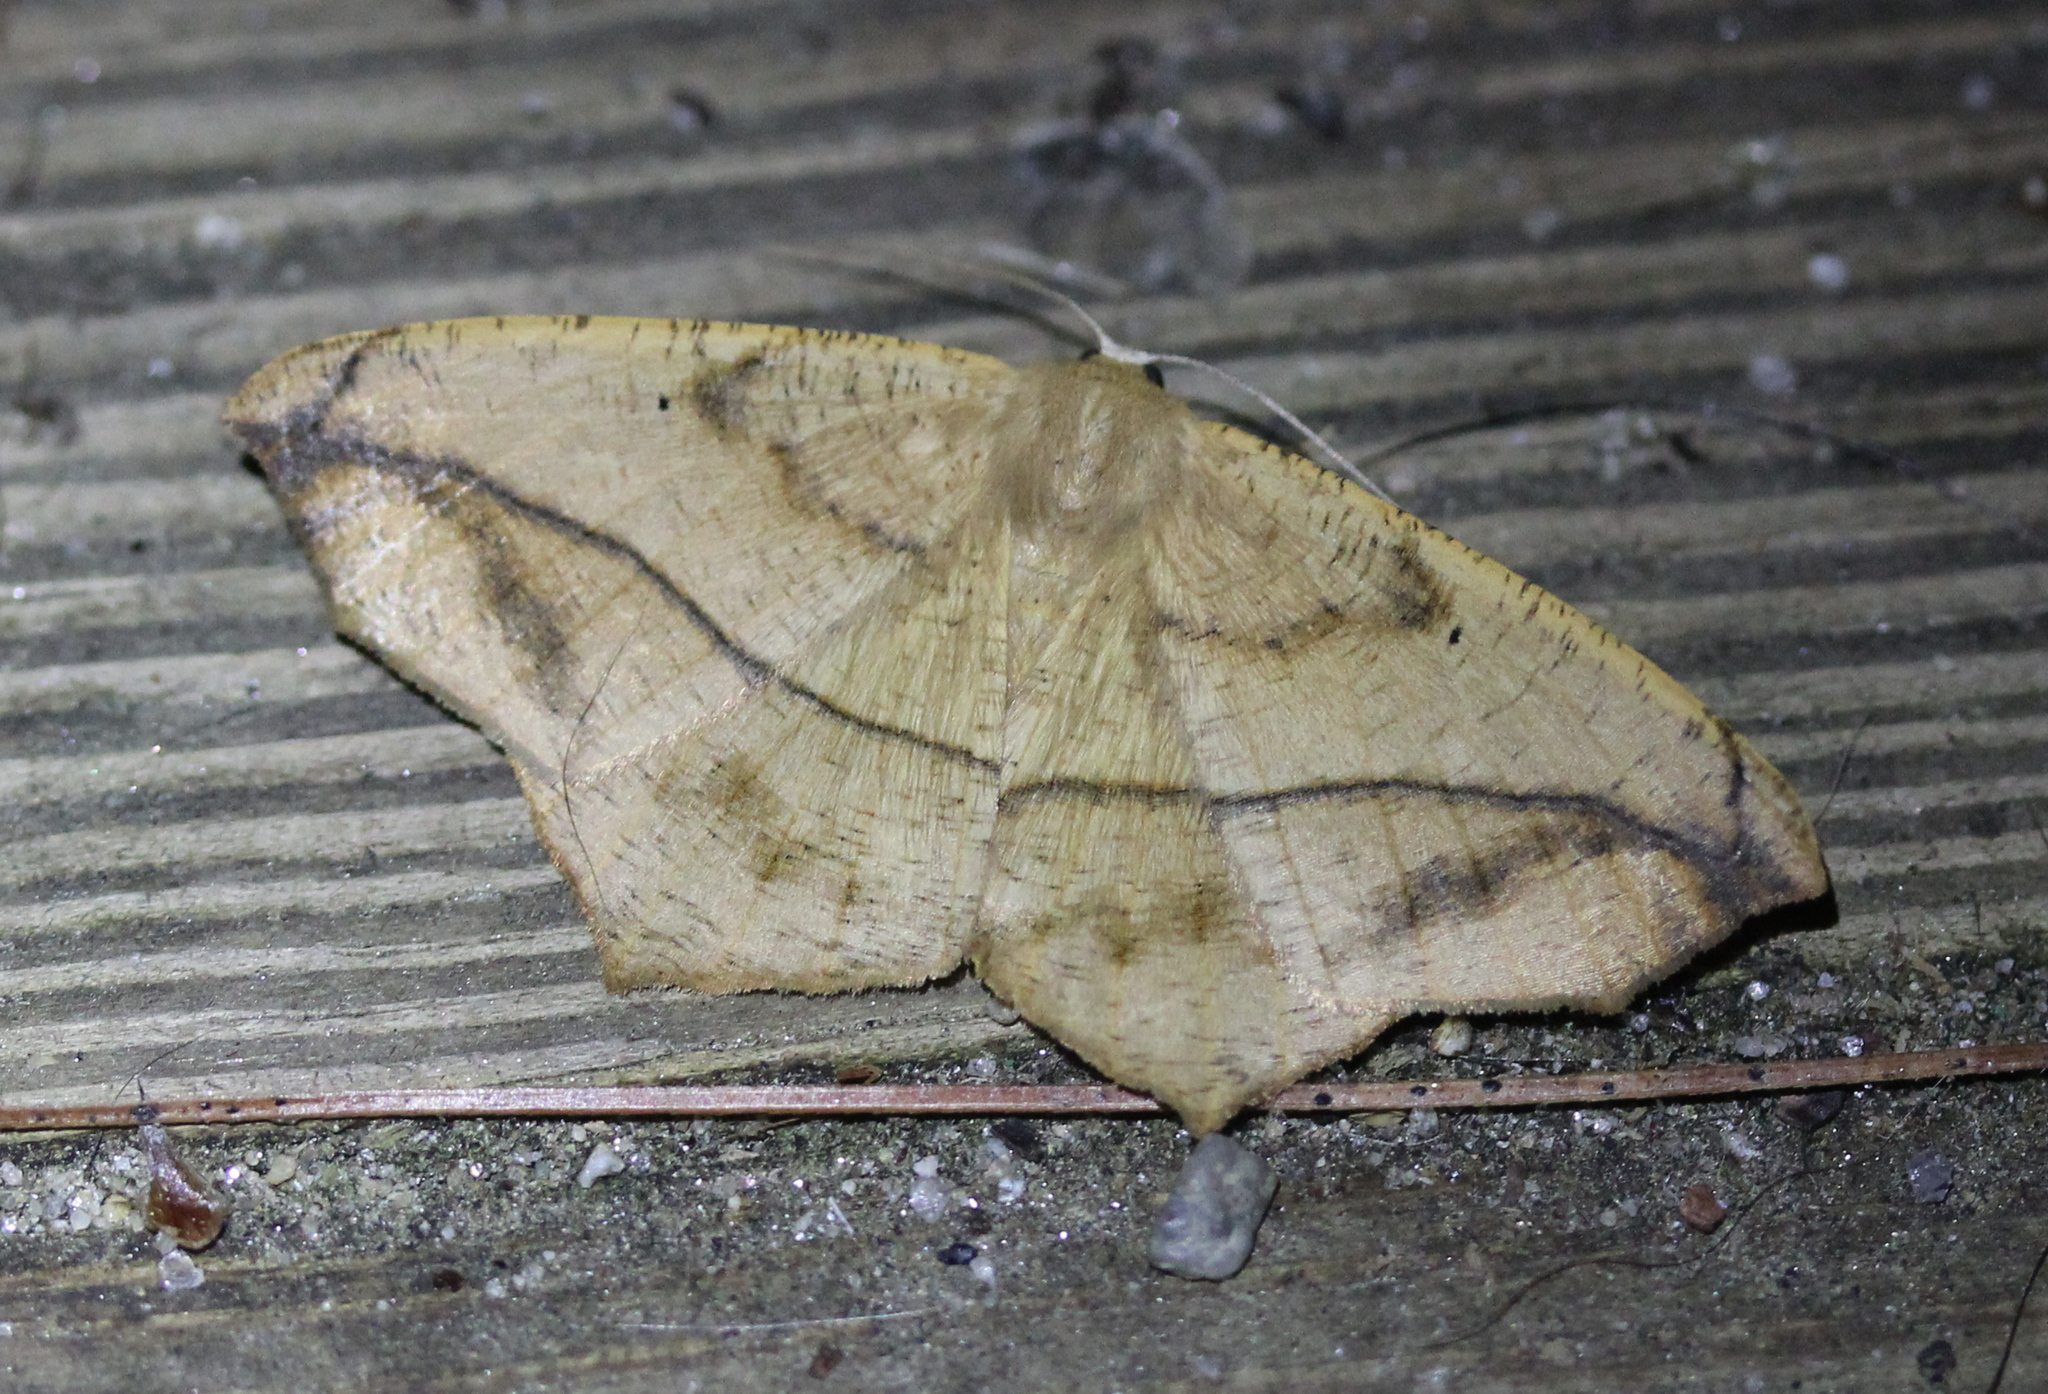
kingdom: Animalia
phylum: Arthropoda
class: Insecta
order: Lepidoptera
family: Geometridae
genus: Prochoerodes
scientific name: Prochoerodes lineola
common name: Large maple spanworm
